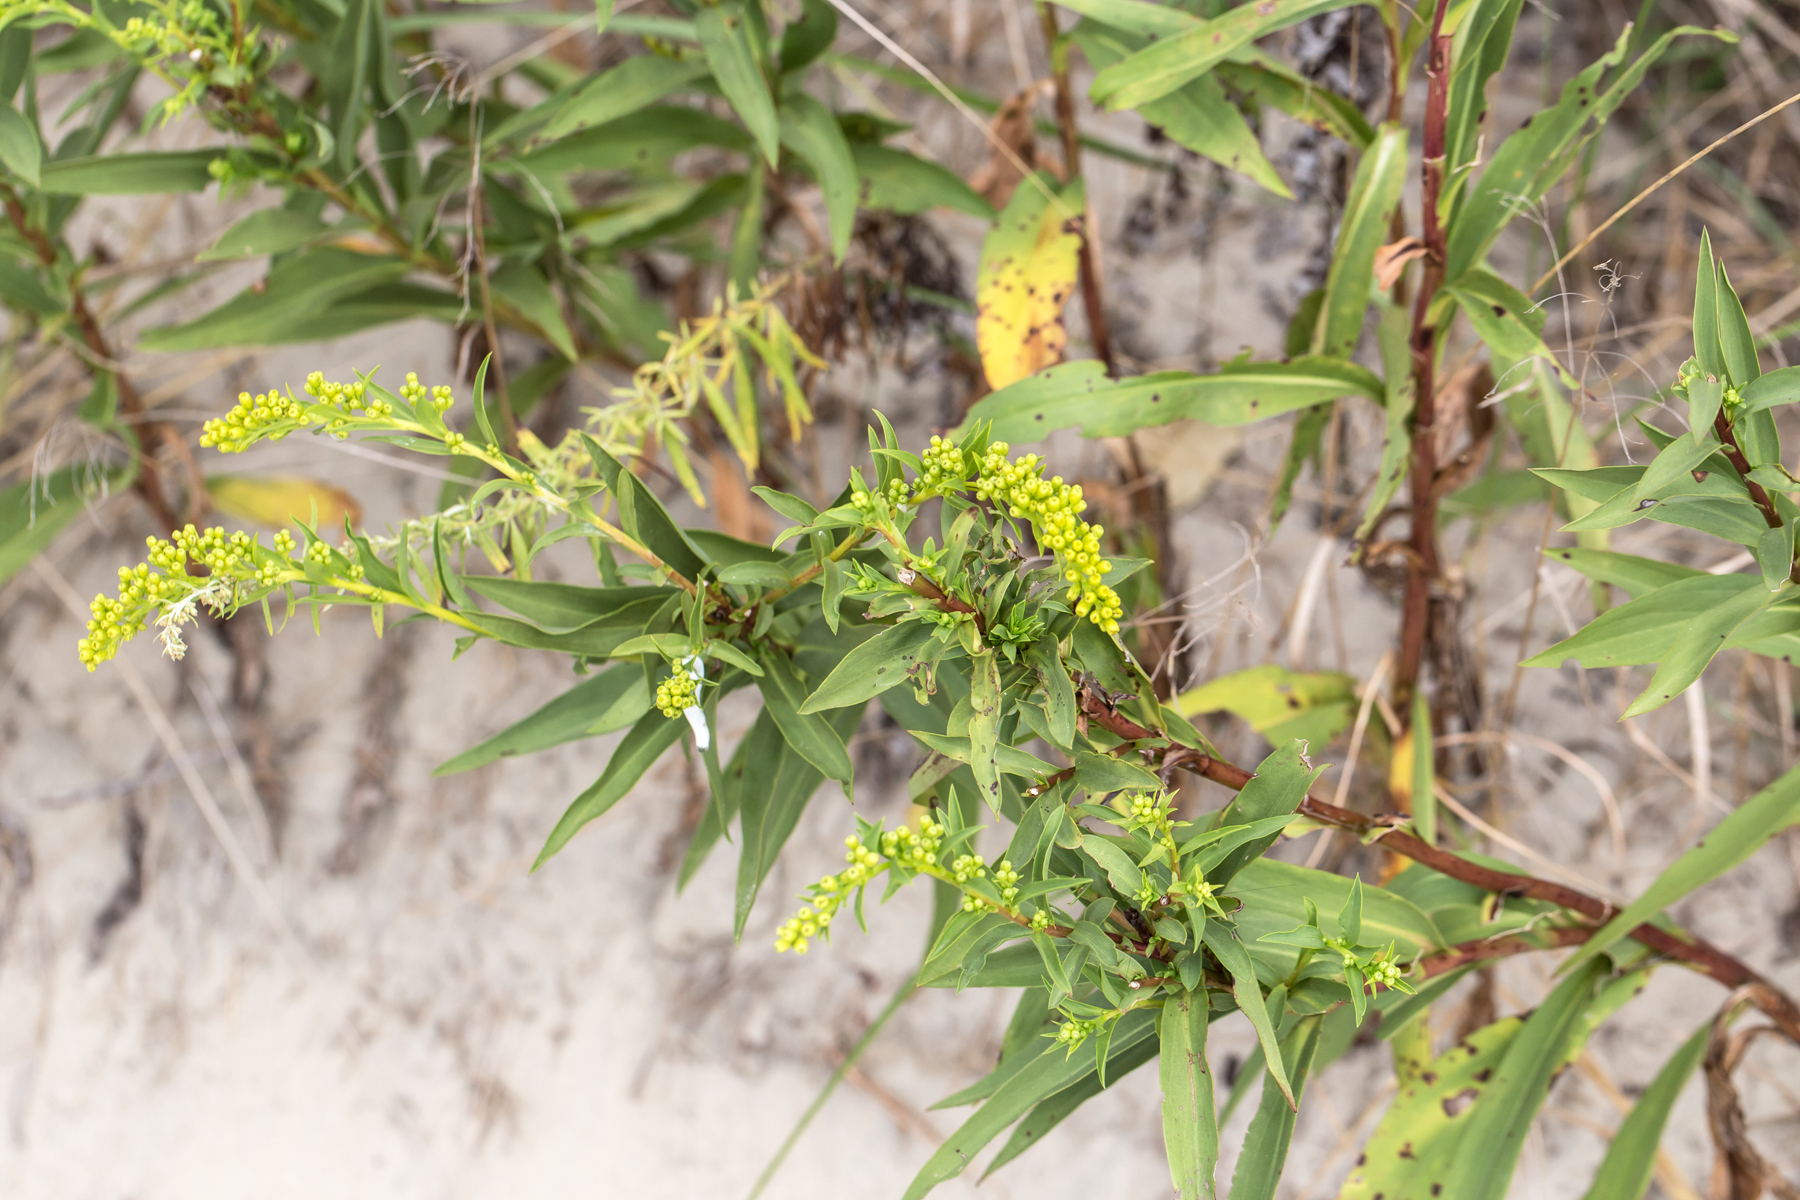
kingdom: Plantae
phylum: Tracheophyta
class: Magnoliopsida
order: Asterales
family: Asteraceae
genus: Solidago
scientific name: Solidago sempervirens
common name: Salt-marsh goldenrod
